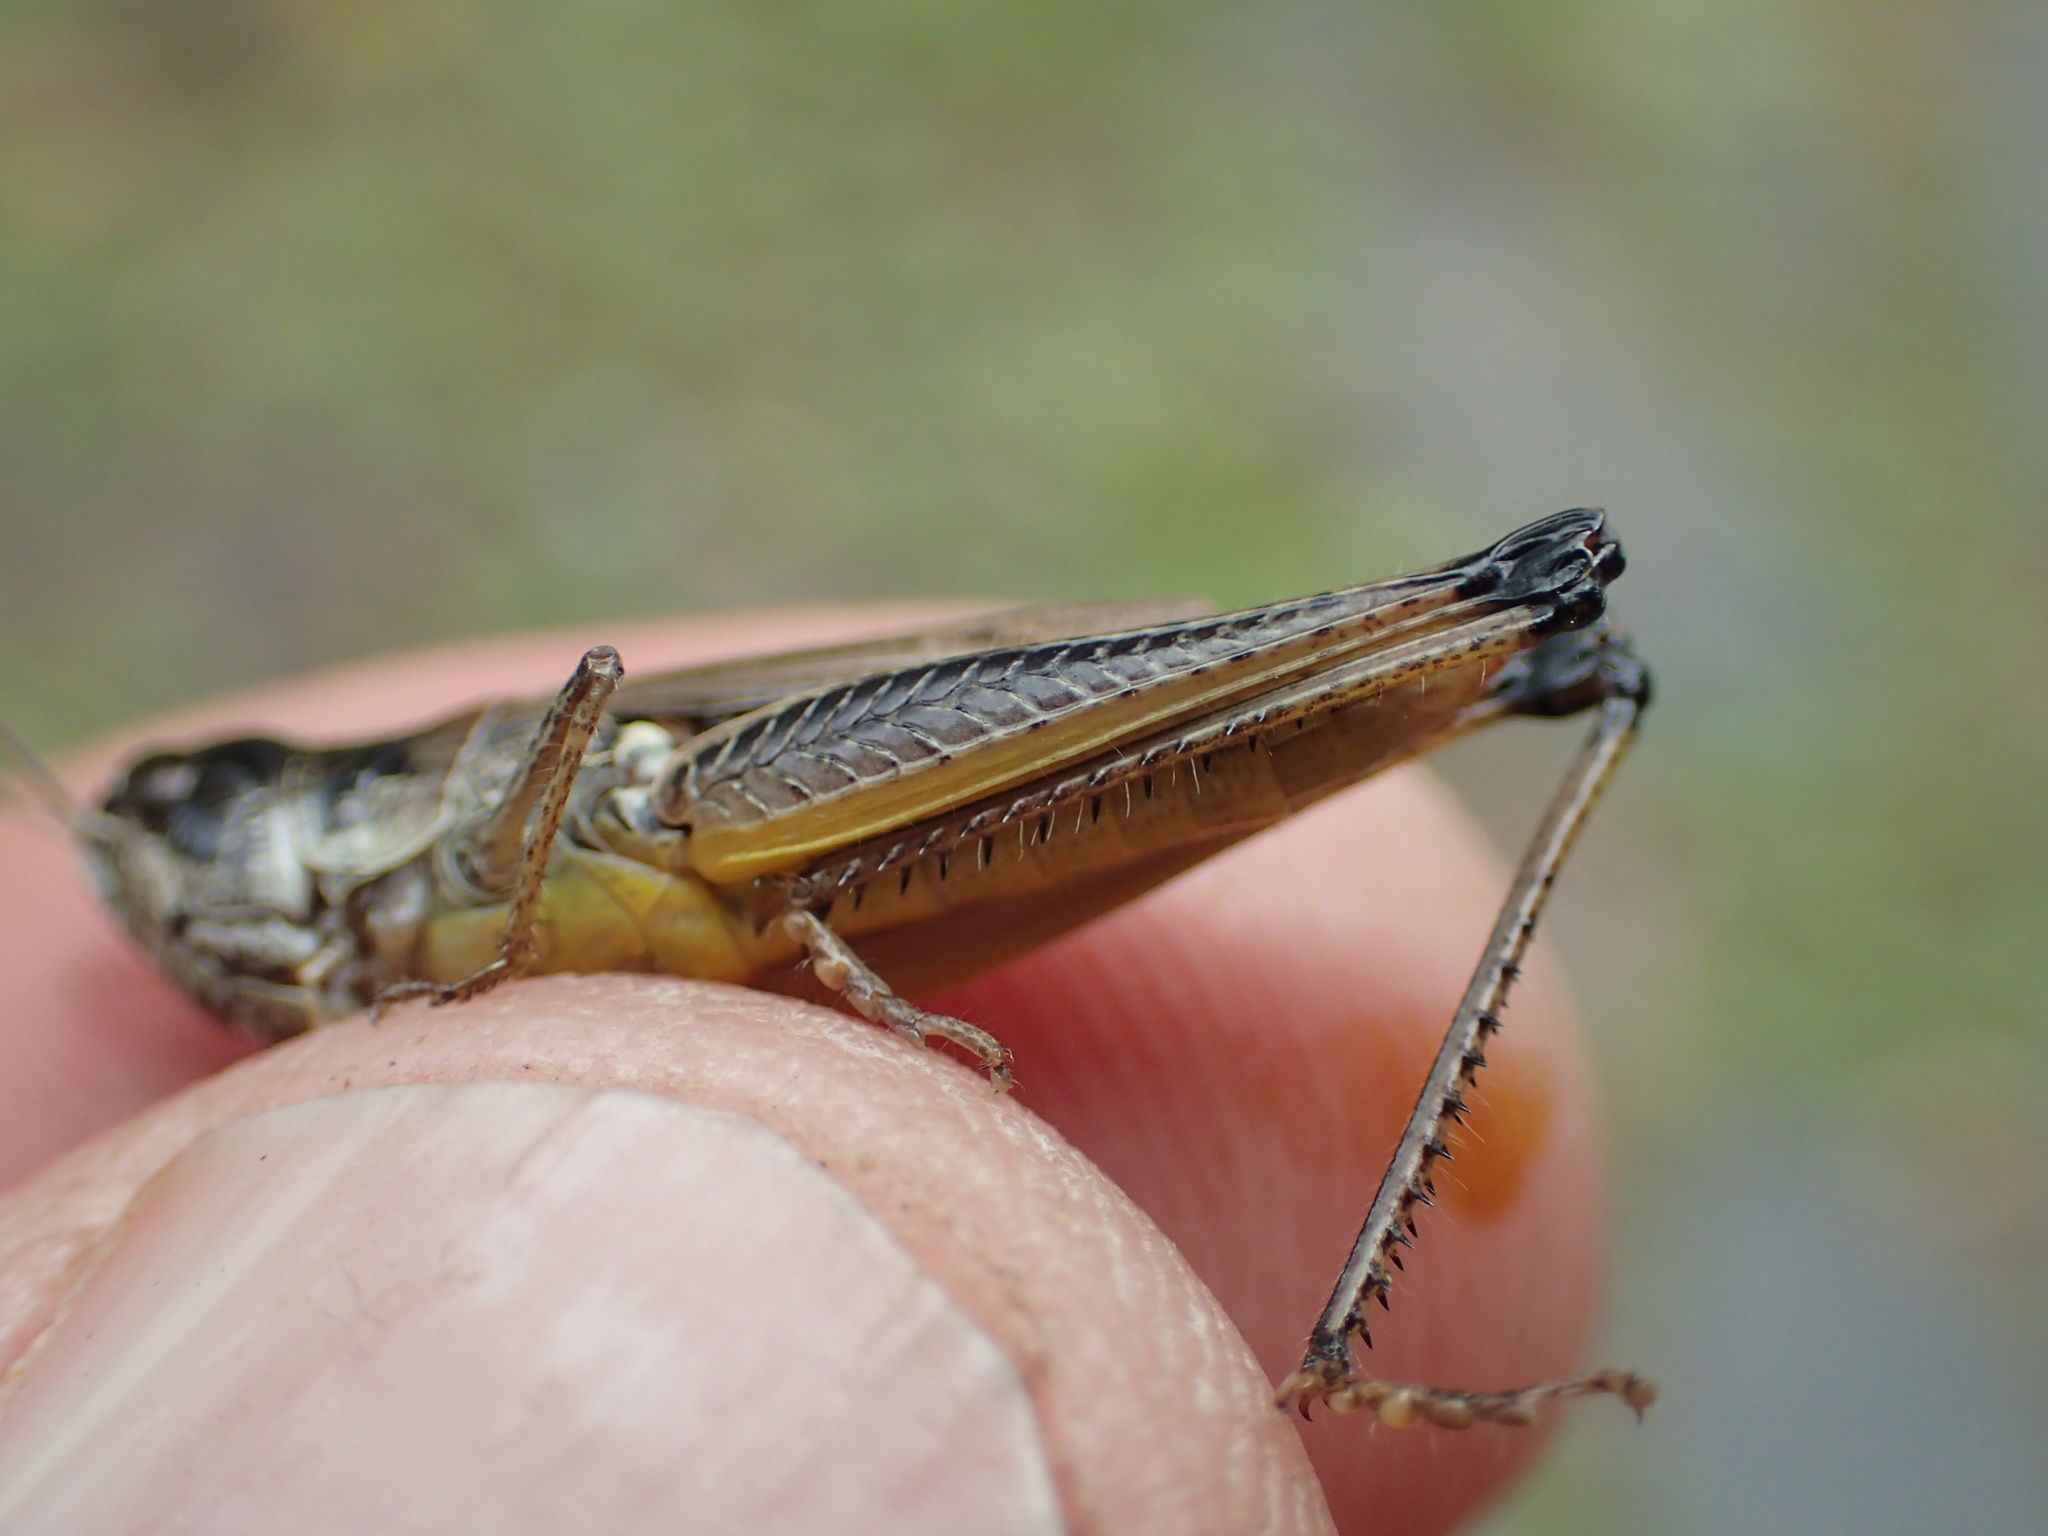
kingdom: Animalia
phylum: Arthropoda
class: Insecta
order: Orthoptera
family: Acrididae
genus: Pseudochorthippus
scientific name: Pseudochorthippus curtipennis
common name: Marsh meadow grasshopper
